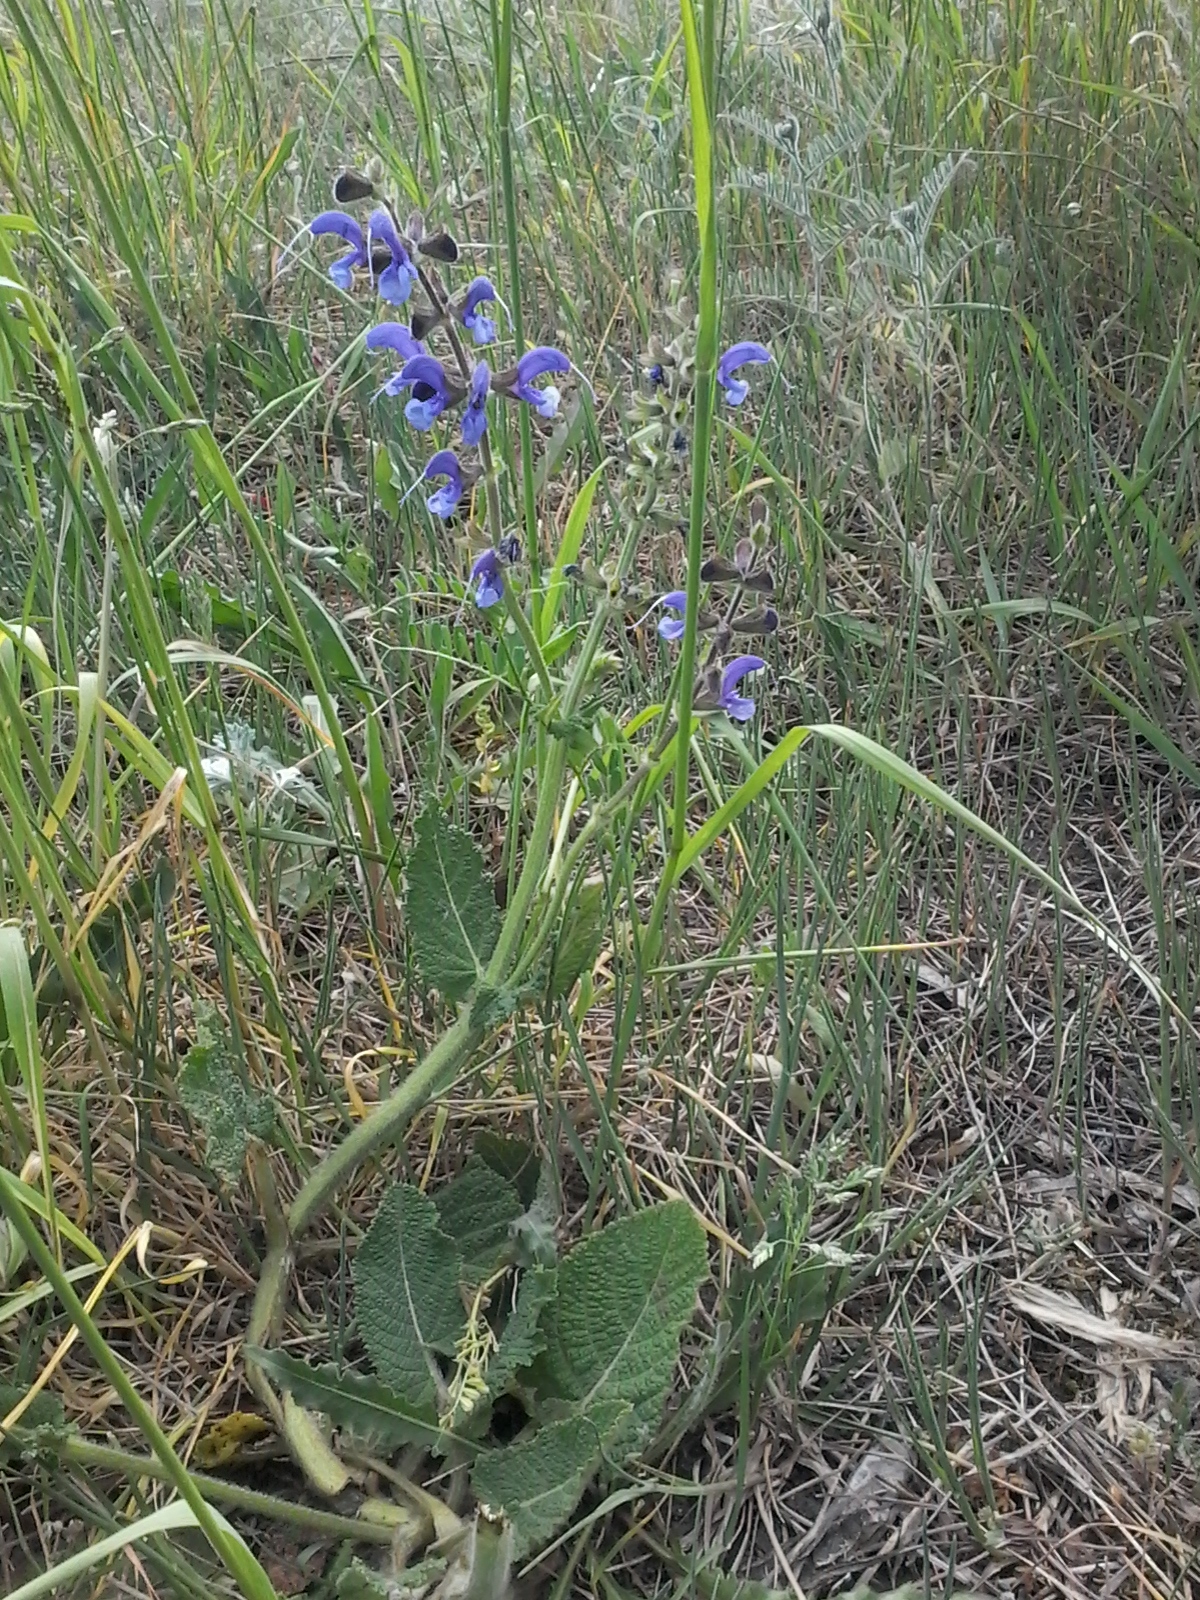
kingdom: Plantae
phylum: Tracheophyta
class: Magnoliopsida
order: Lamiales
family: Lamiaceae
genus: Salvia
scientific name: Salvia pratensis
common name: Meadow sage
